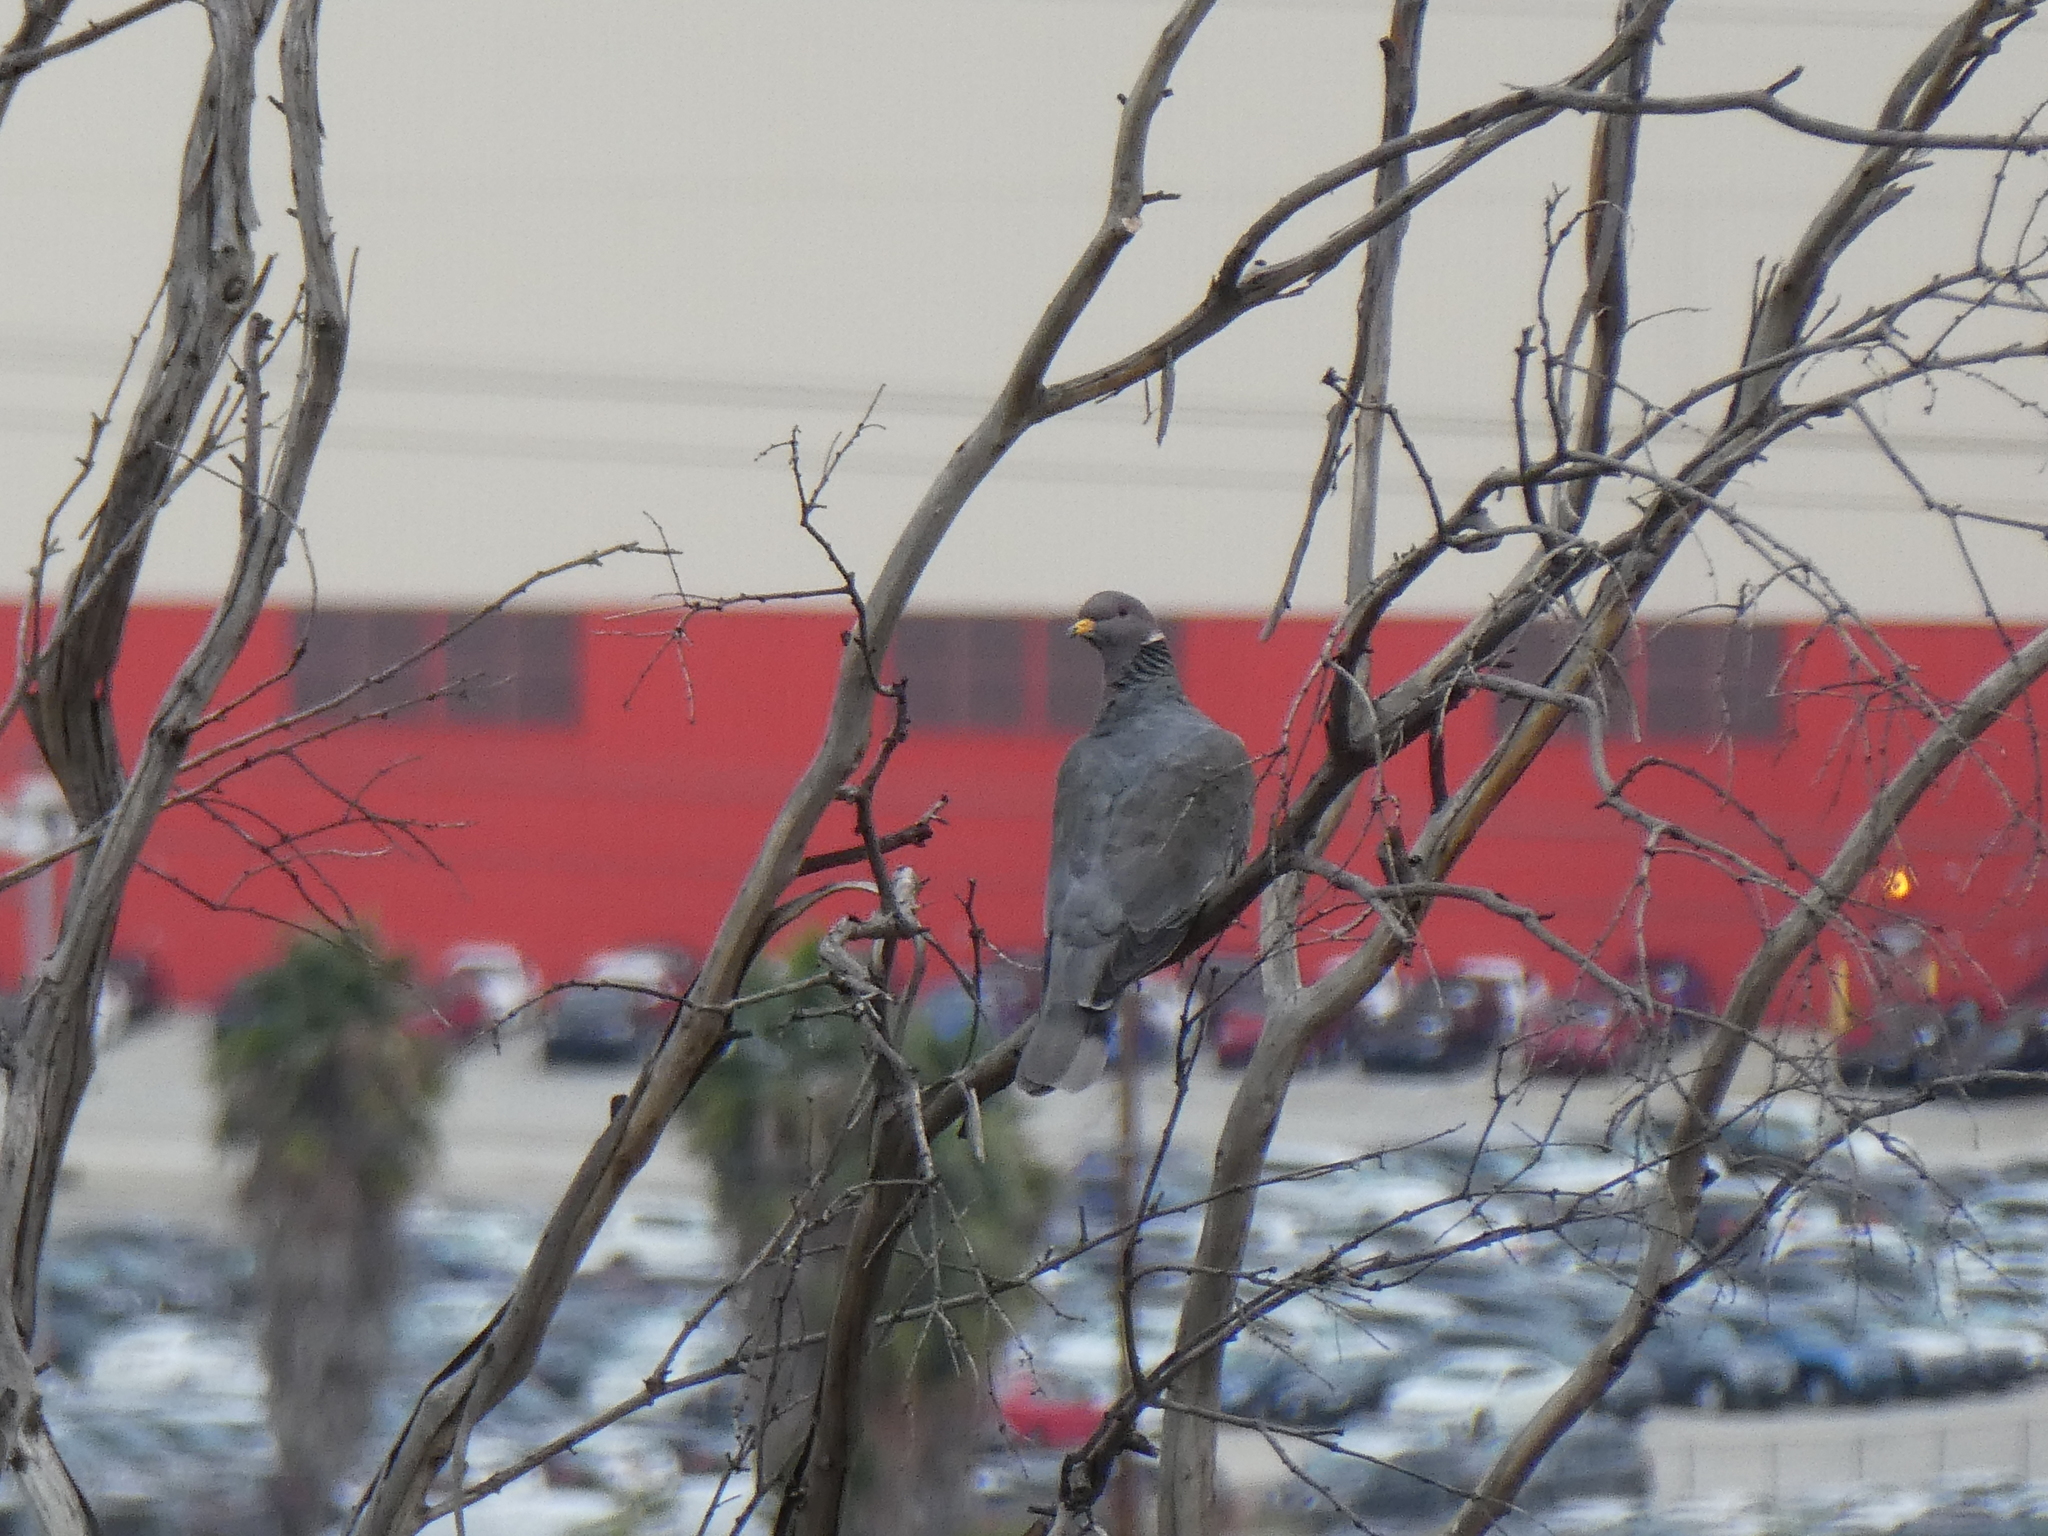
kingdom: Animalia
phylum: Chordata
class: Aves
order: Columbiformes
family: Columbidae
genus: Patagioenas
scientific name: Patagioenas fasciata
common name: Band-tailed pigeon
